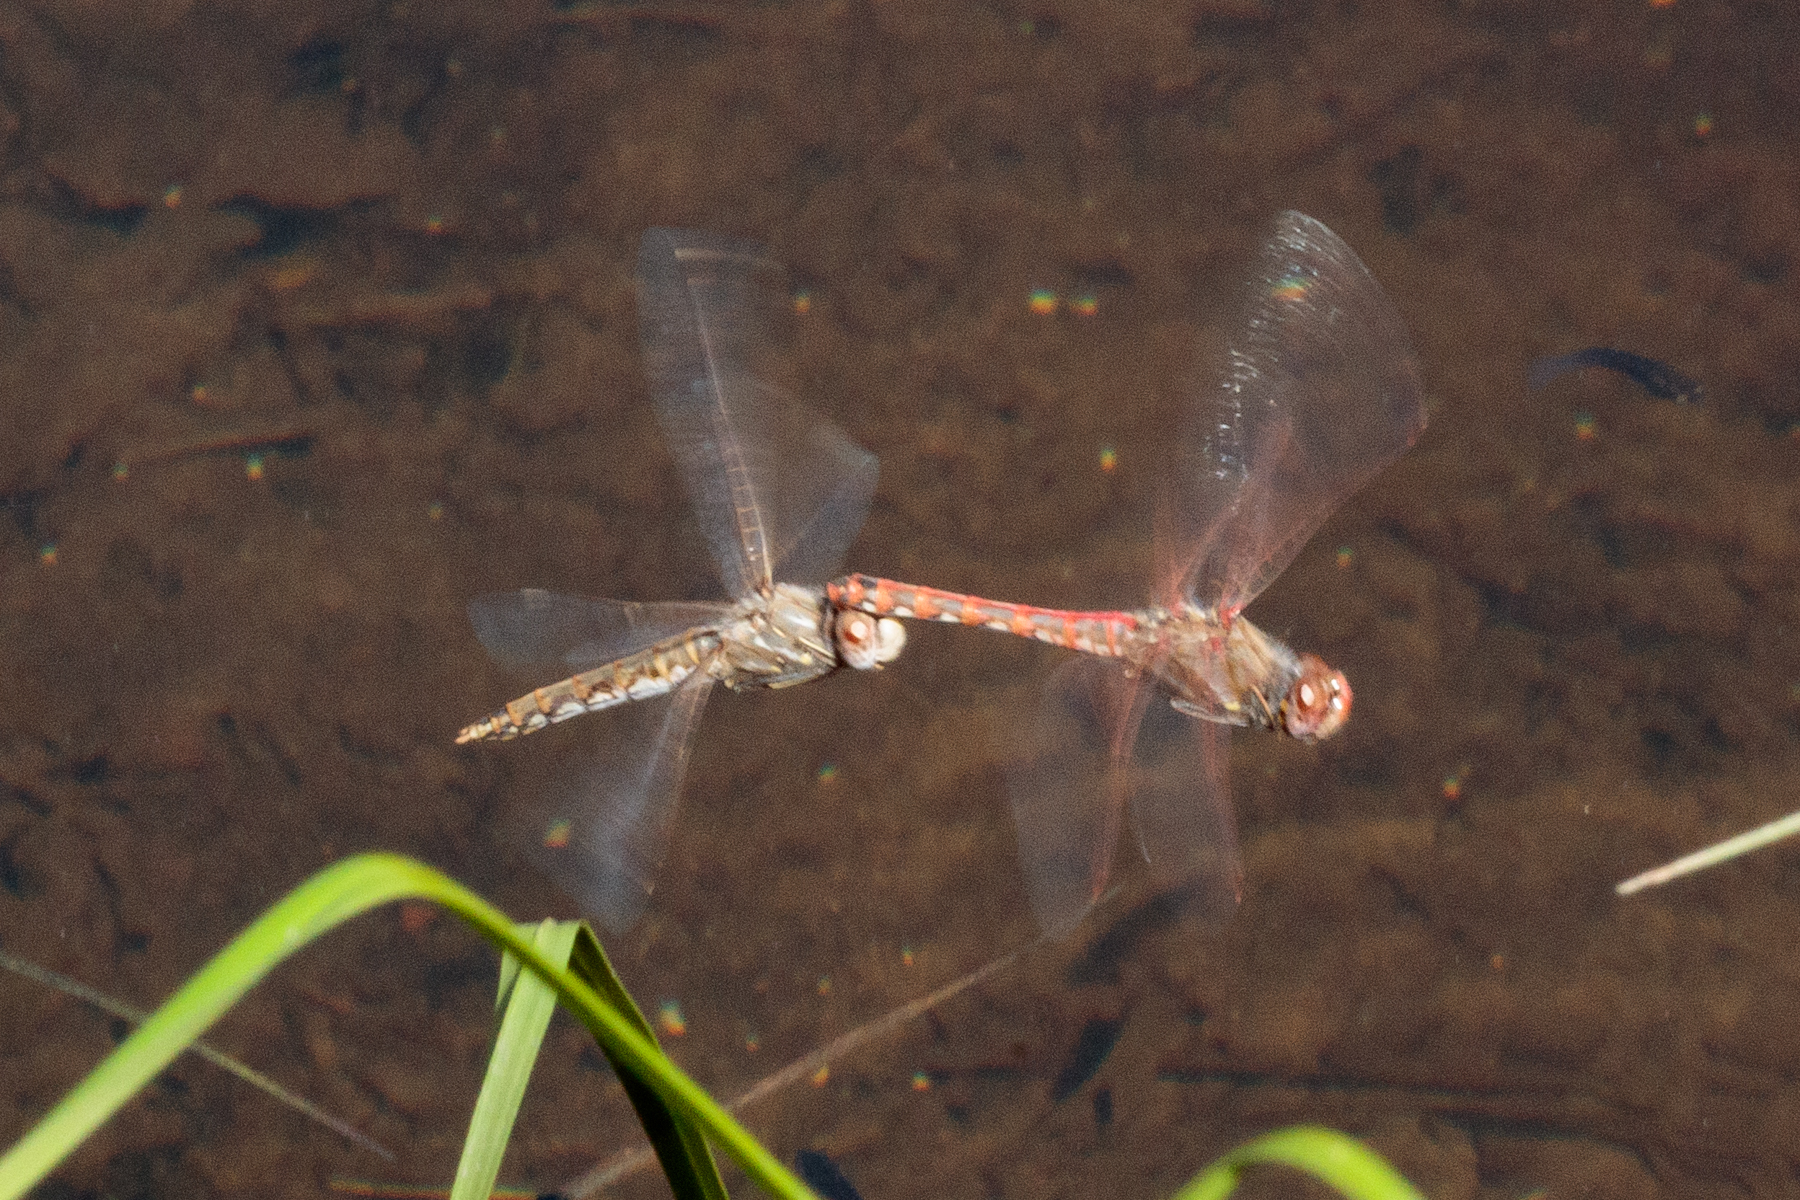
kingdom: Animalia
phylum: Arthropoda
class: Insecta
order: Odonata
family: Libellulidae
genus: Sympetrum
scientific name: Sympetrum corruptum
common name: Variegated meadowhawk
